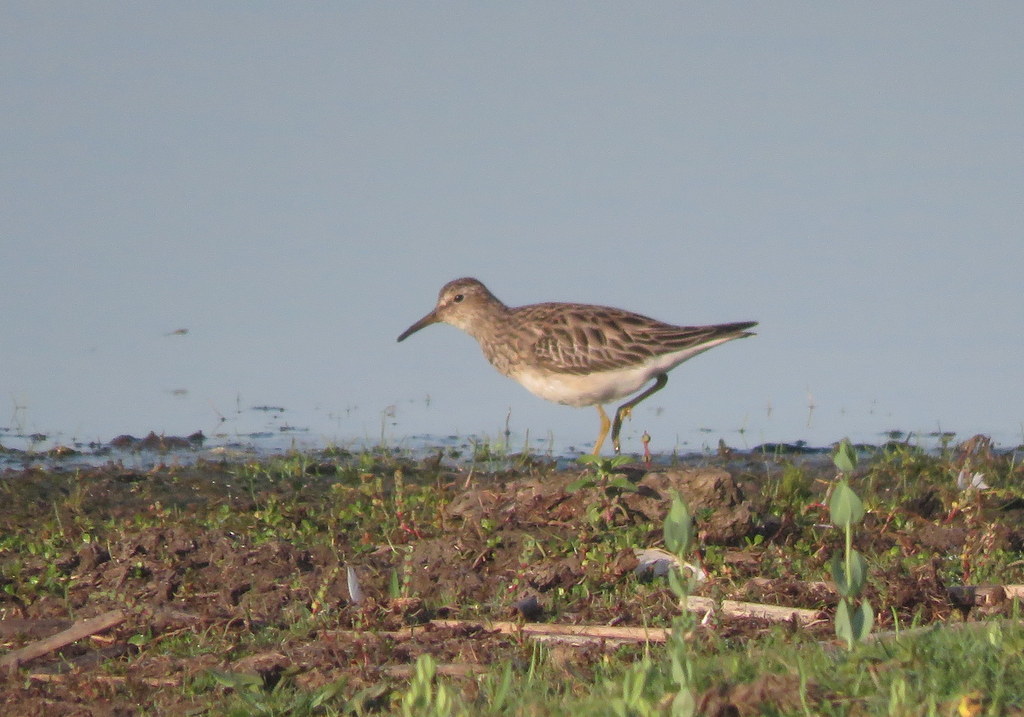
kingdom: Animalia
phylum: Chordata
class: Aves
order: Charadriiformes
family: Scolopacidae
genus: Calidris
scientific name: Calidris melanotos
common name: Pectoral sandpiper
